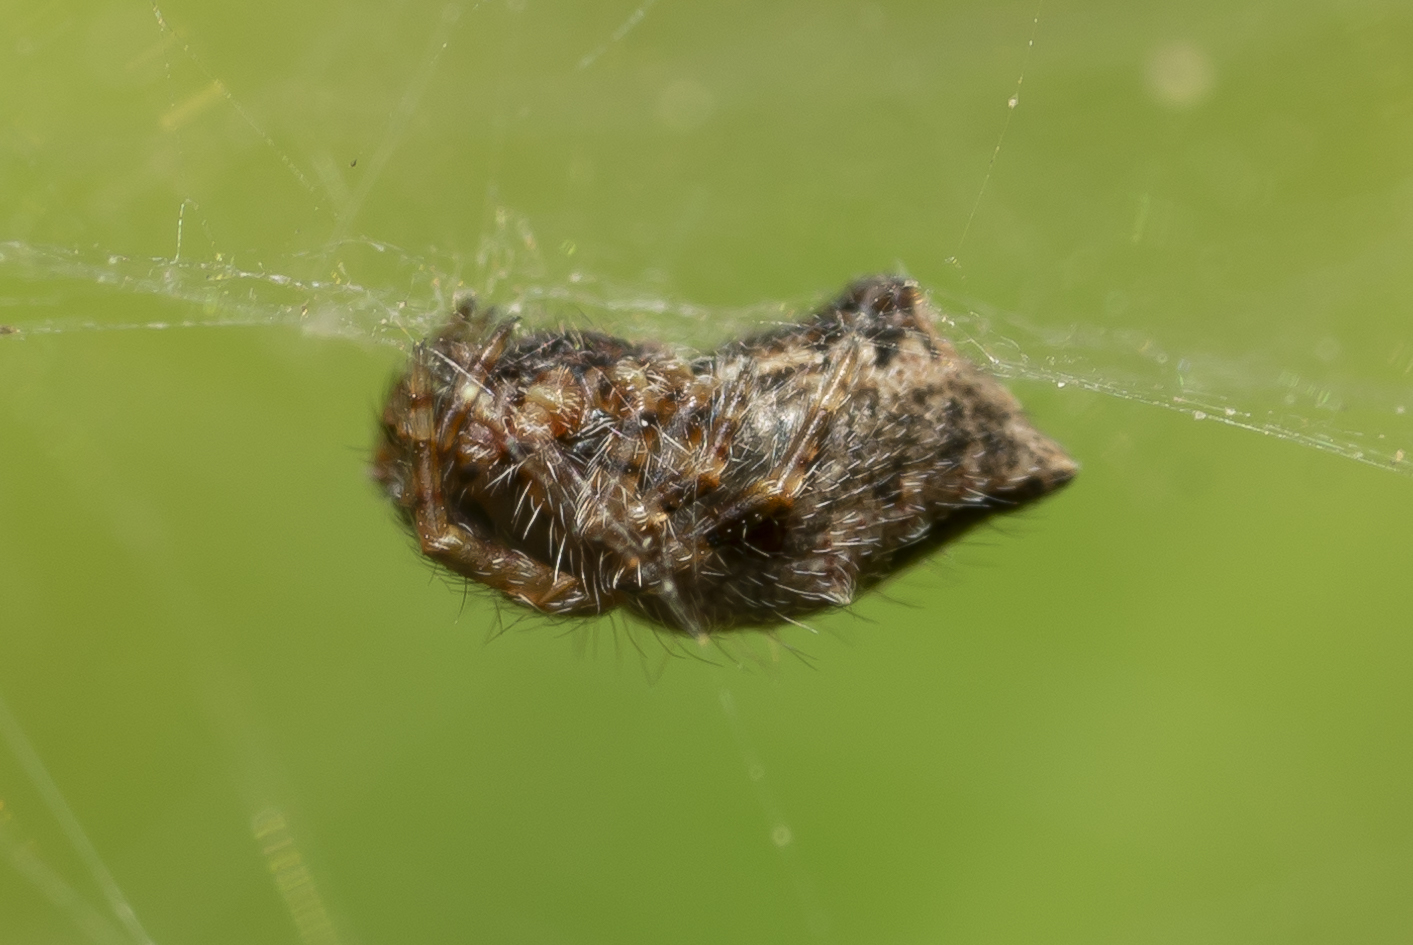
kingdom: Animalia
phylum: Arthropoda
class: Arachnida
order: Araneae
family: Araneidae
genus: Cyrtophora
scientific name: Cyrtophora citricola
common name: Orb weavers
